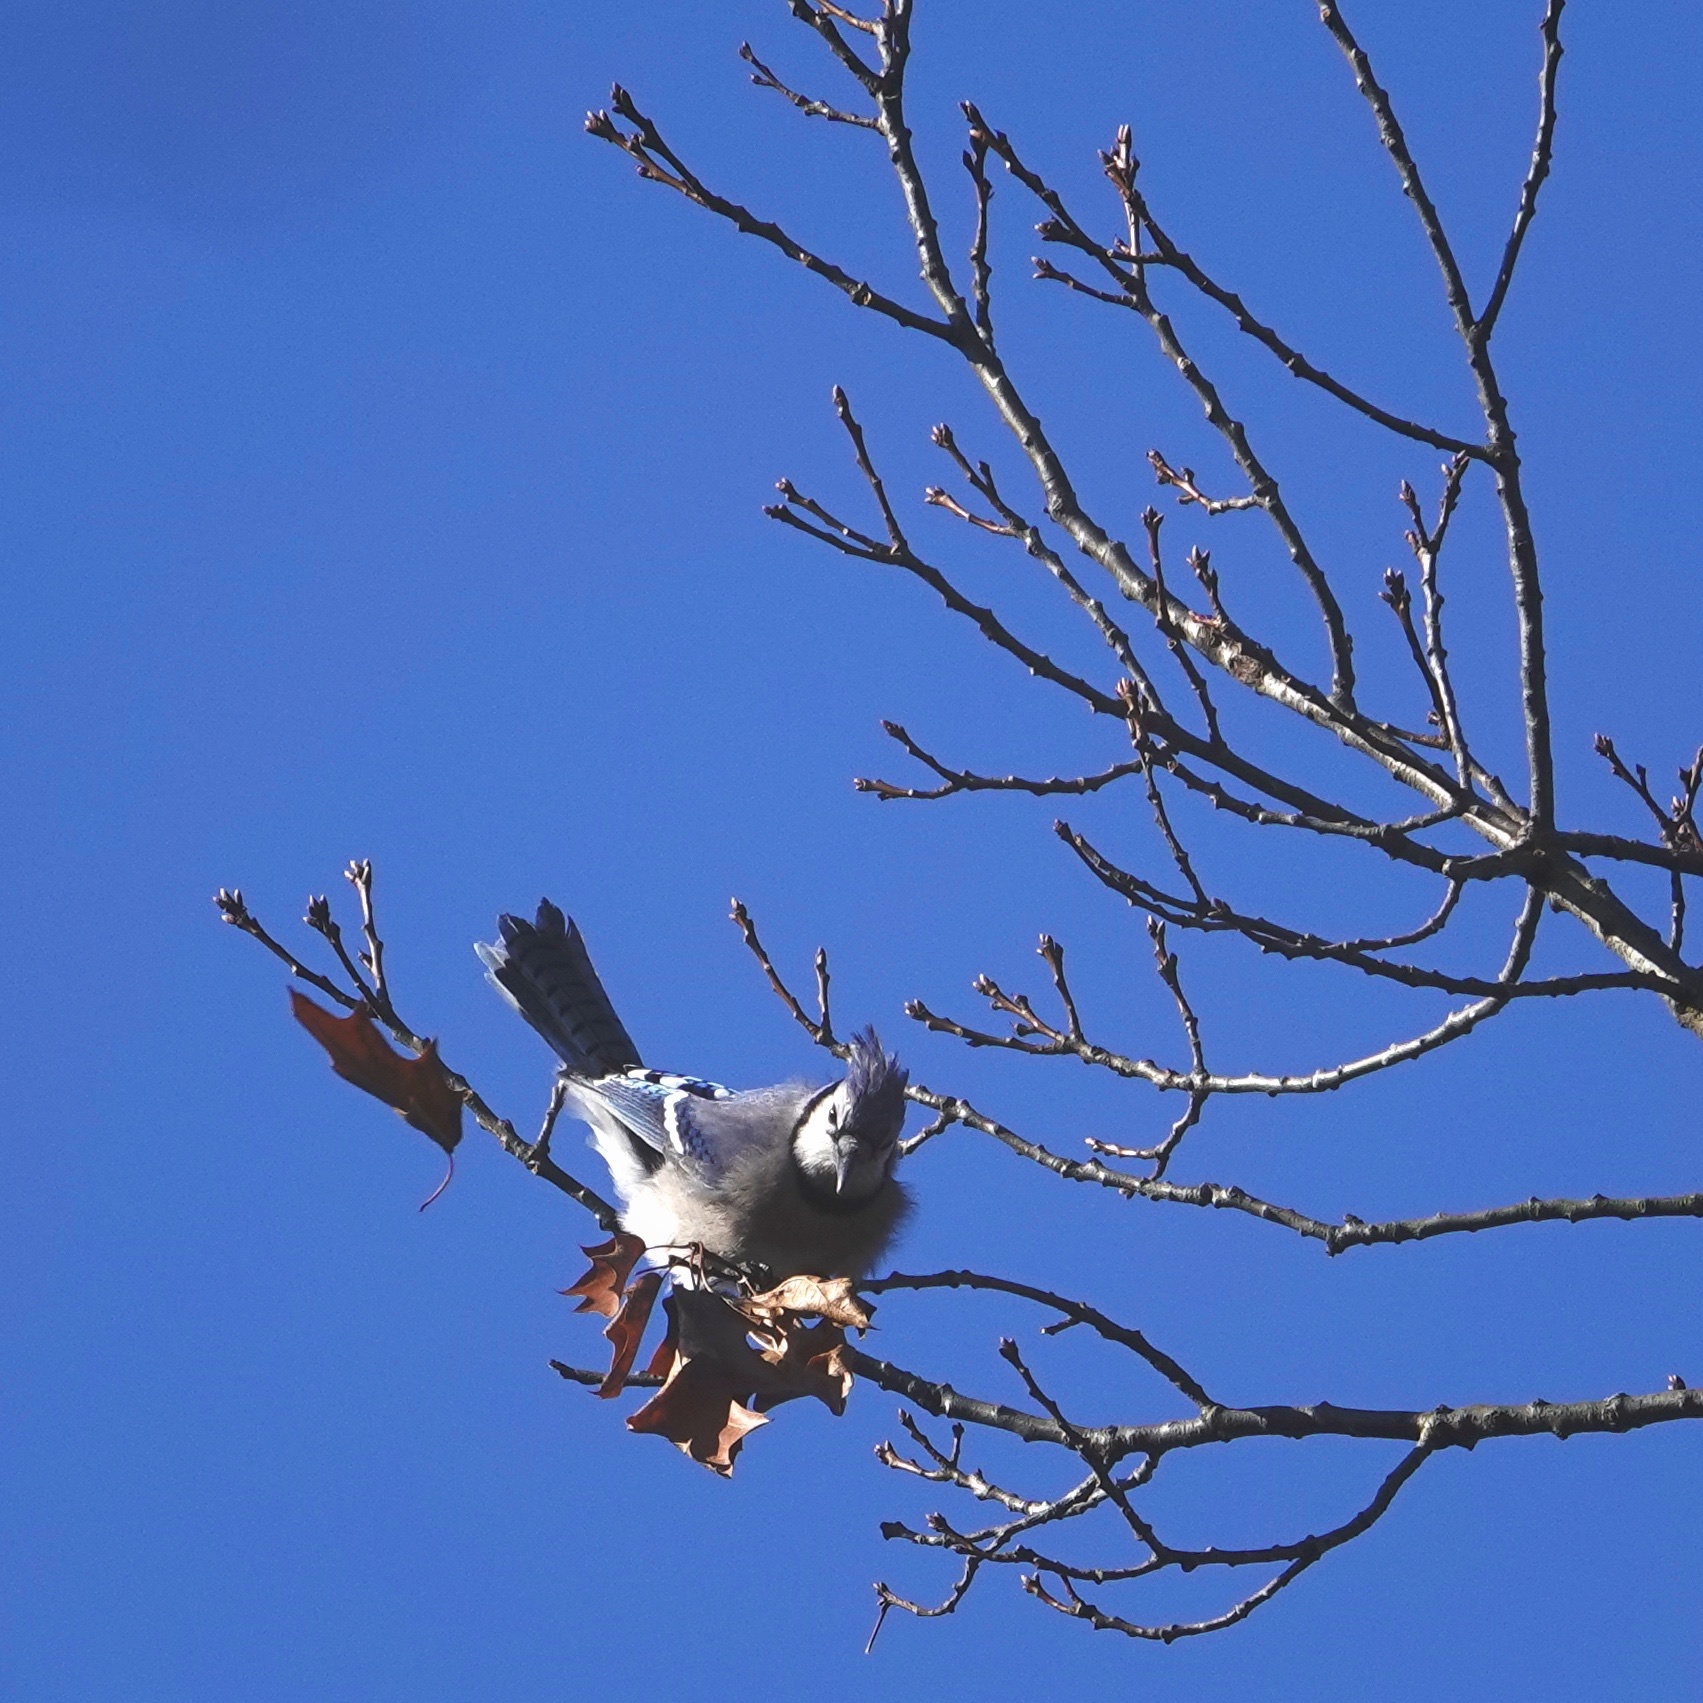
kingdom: Animalia
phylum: Chordata
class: Aves
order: Passeriformes
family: Corvidae
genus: Cyanocitta
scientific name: Cyanocitta cristata
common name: Blue jay
